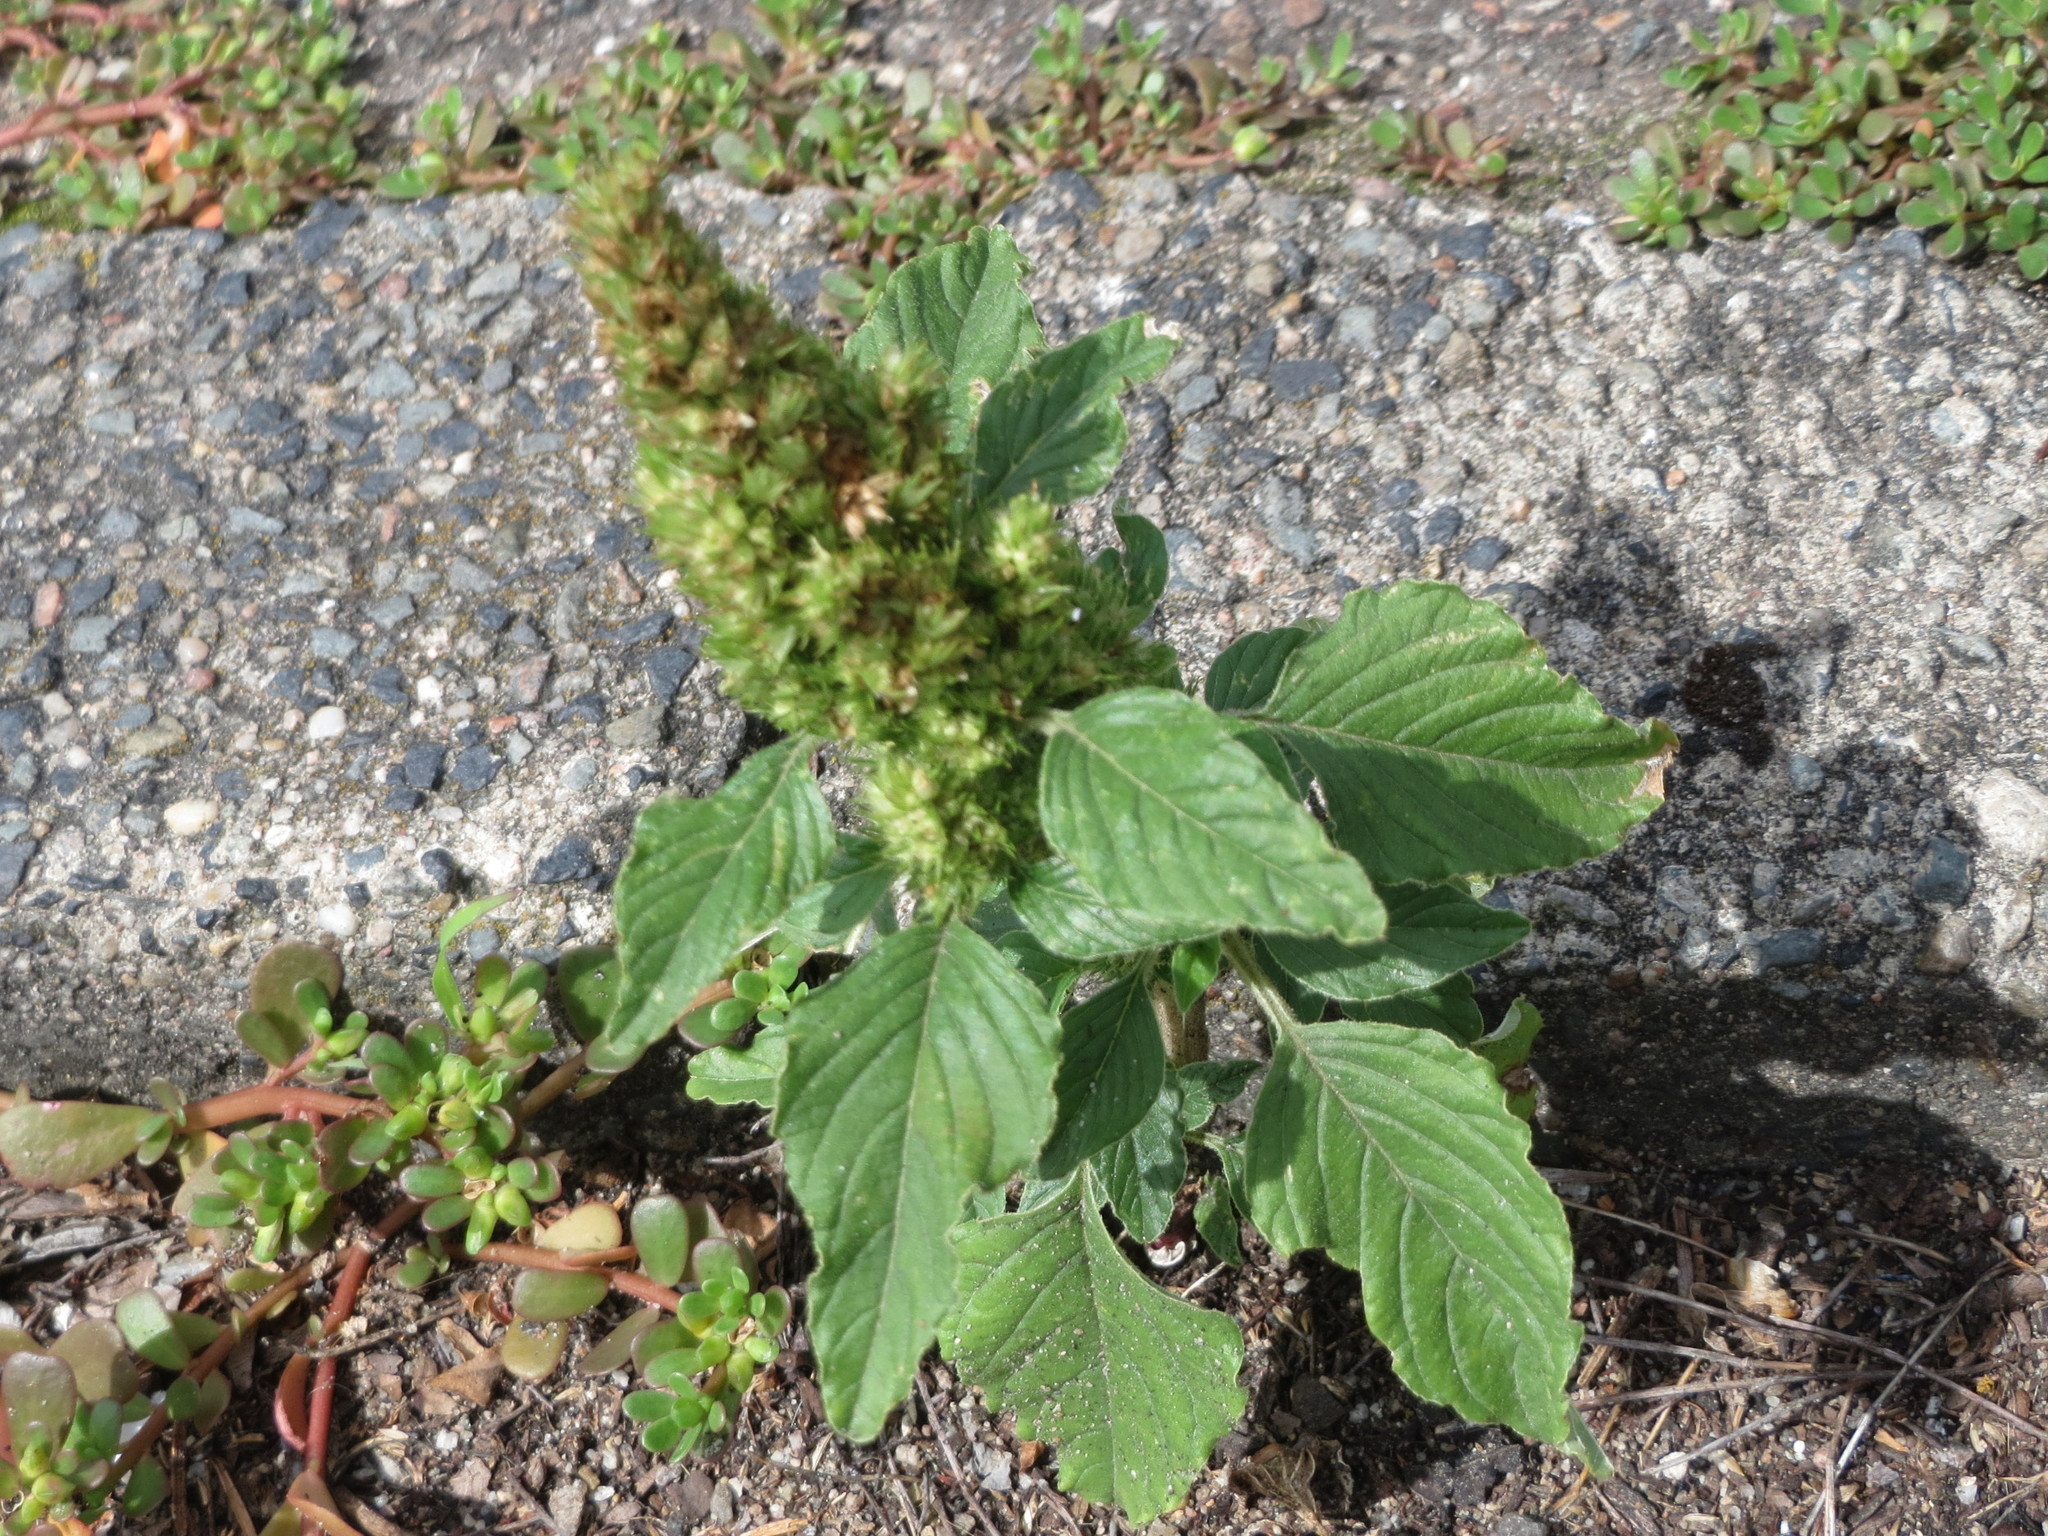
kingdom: Plantae
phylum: Tracheophyta
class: Magnoliopsida
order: Caryophyllales
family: Amaranthaceae
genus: Amaranthus
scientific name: Amaranthus retroflexus
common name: Redroot amaranth
